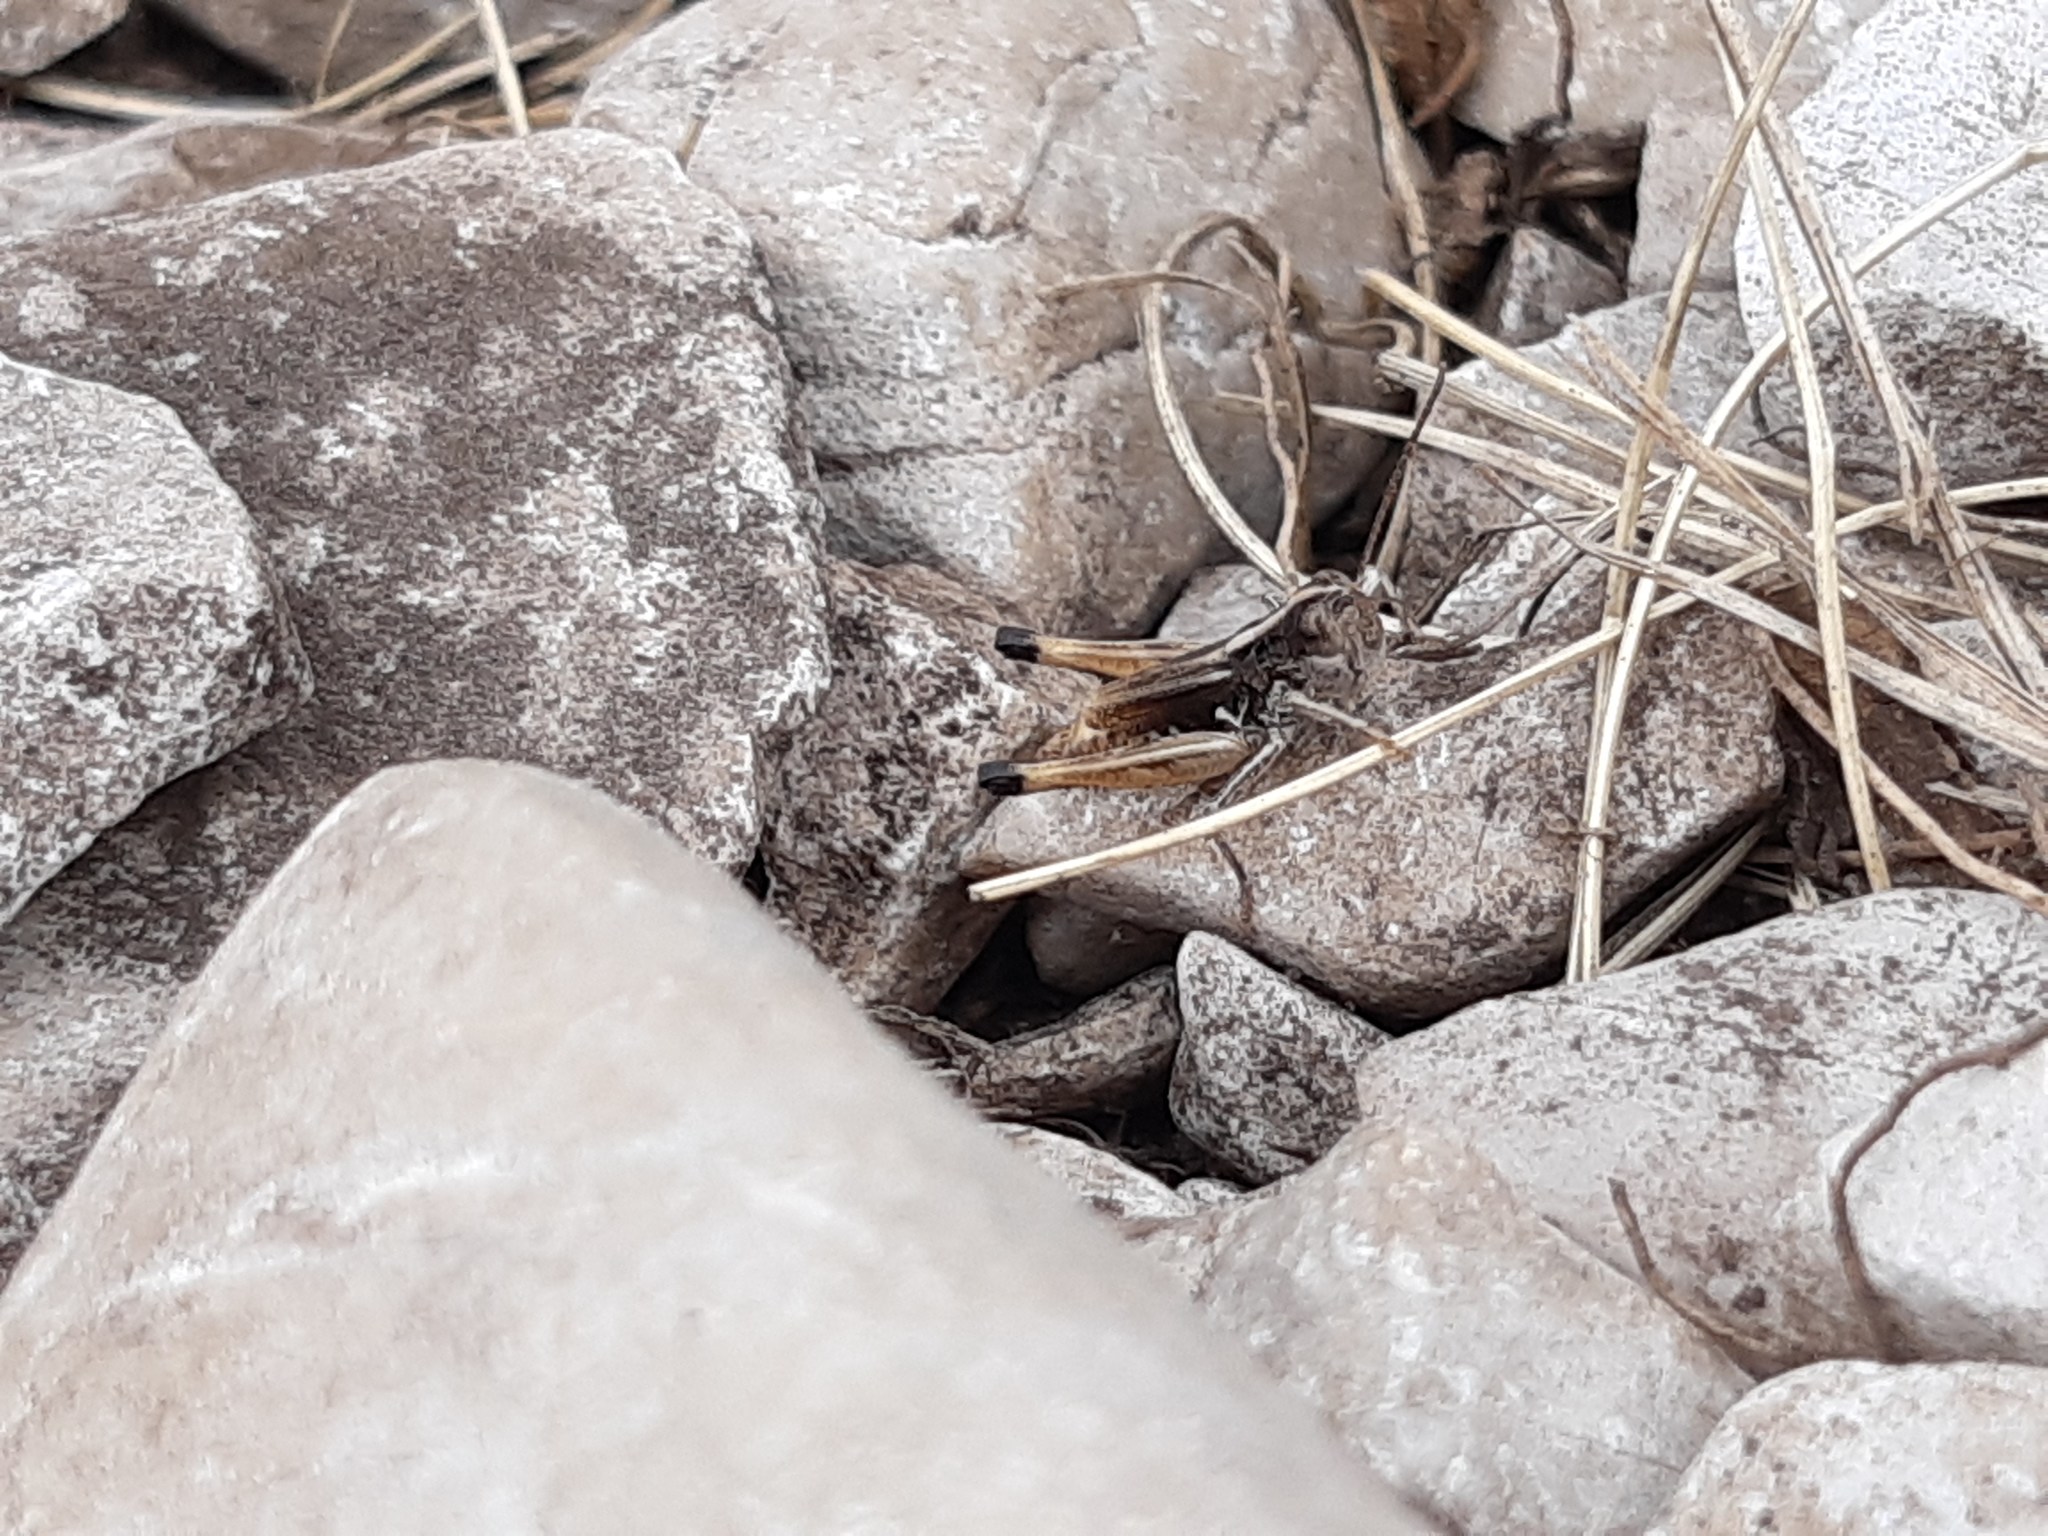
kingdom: Animalia
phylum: Arthropoda
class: Insecta
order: Orthoptera
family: Acrididae
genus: Rammeihippus
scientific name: Rammeihippus dinaricus
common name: Dinarian grasshopper
